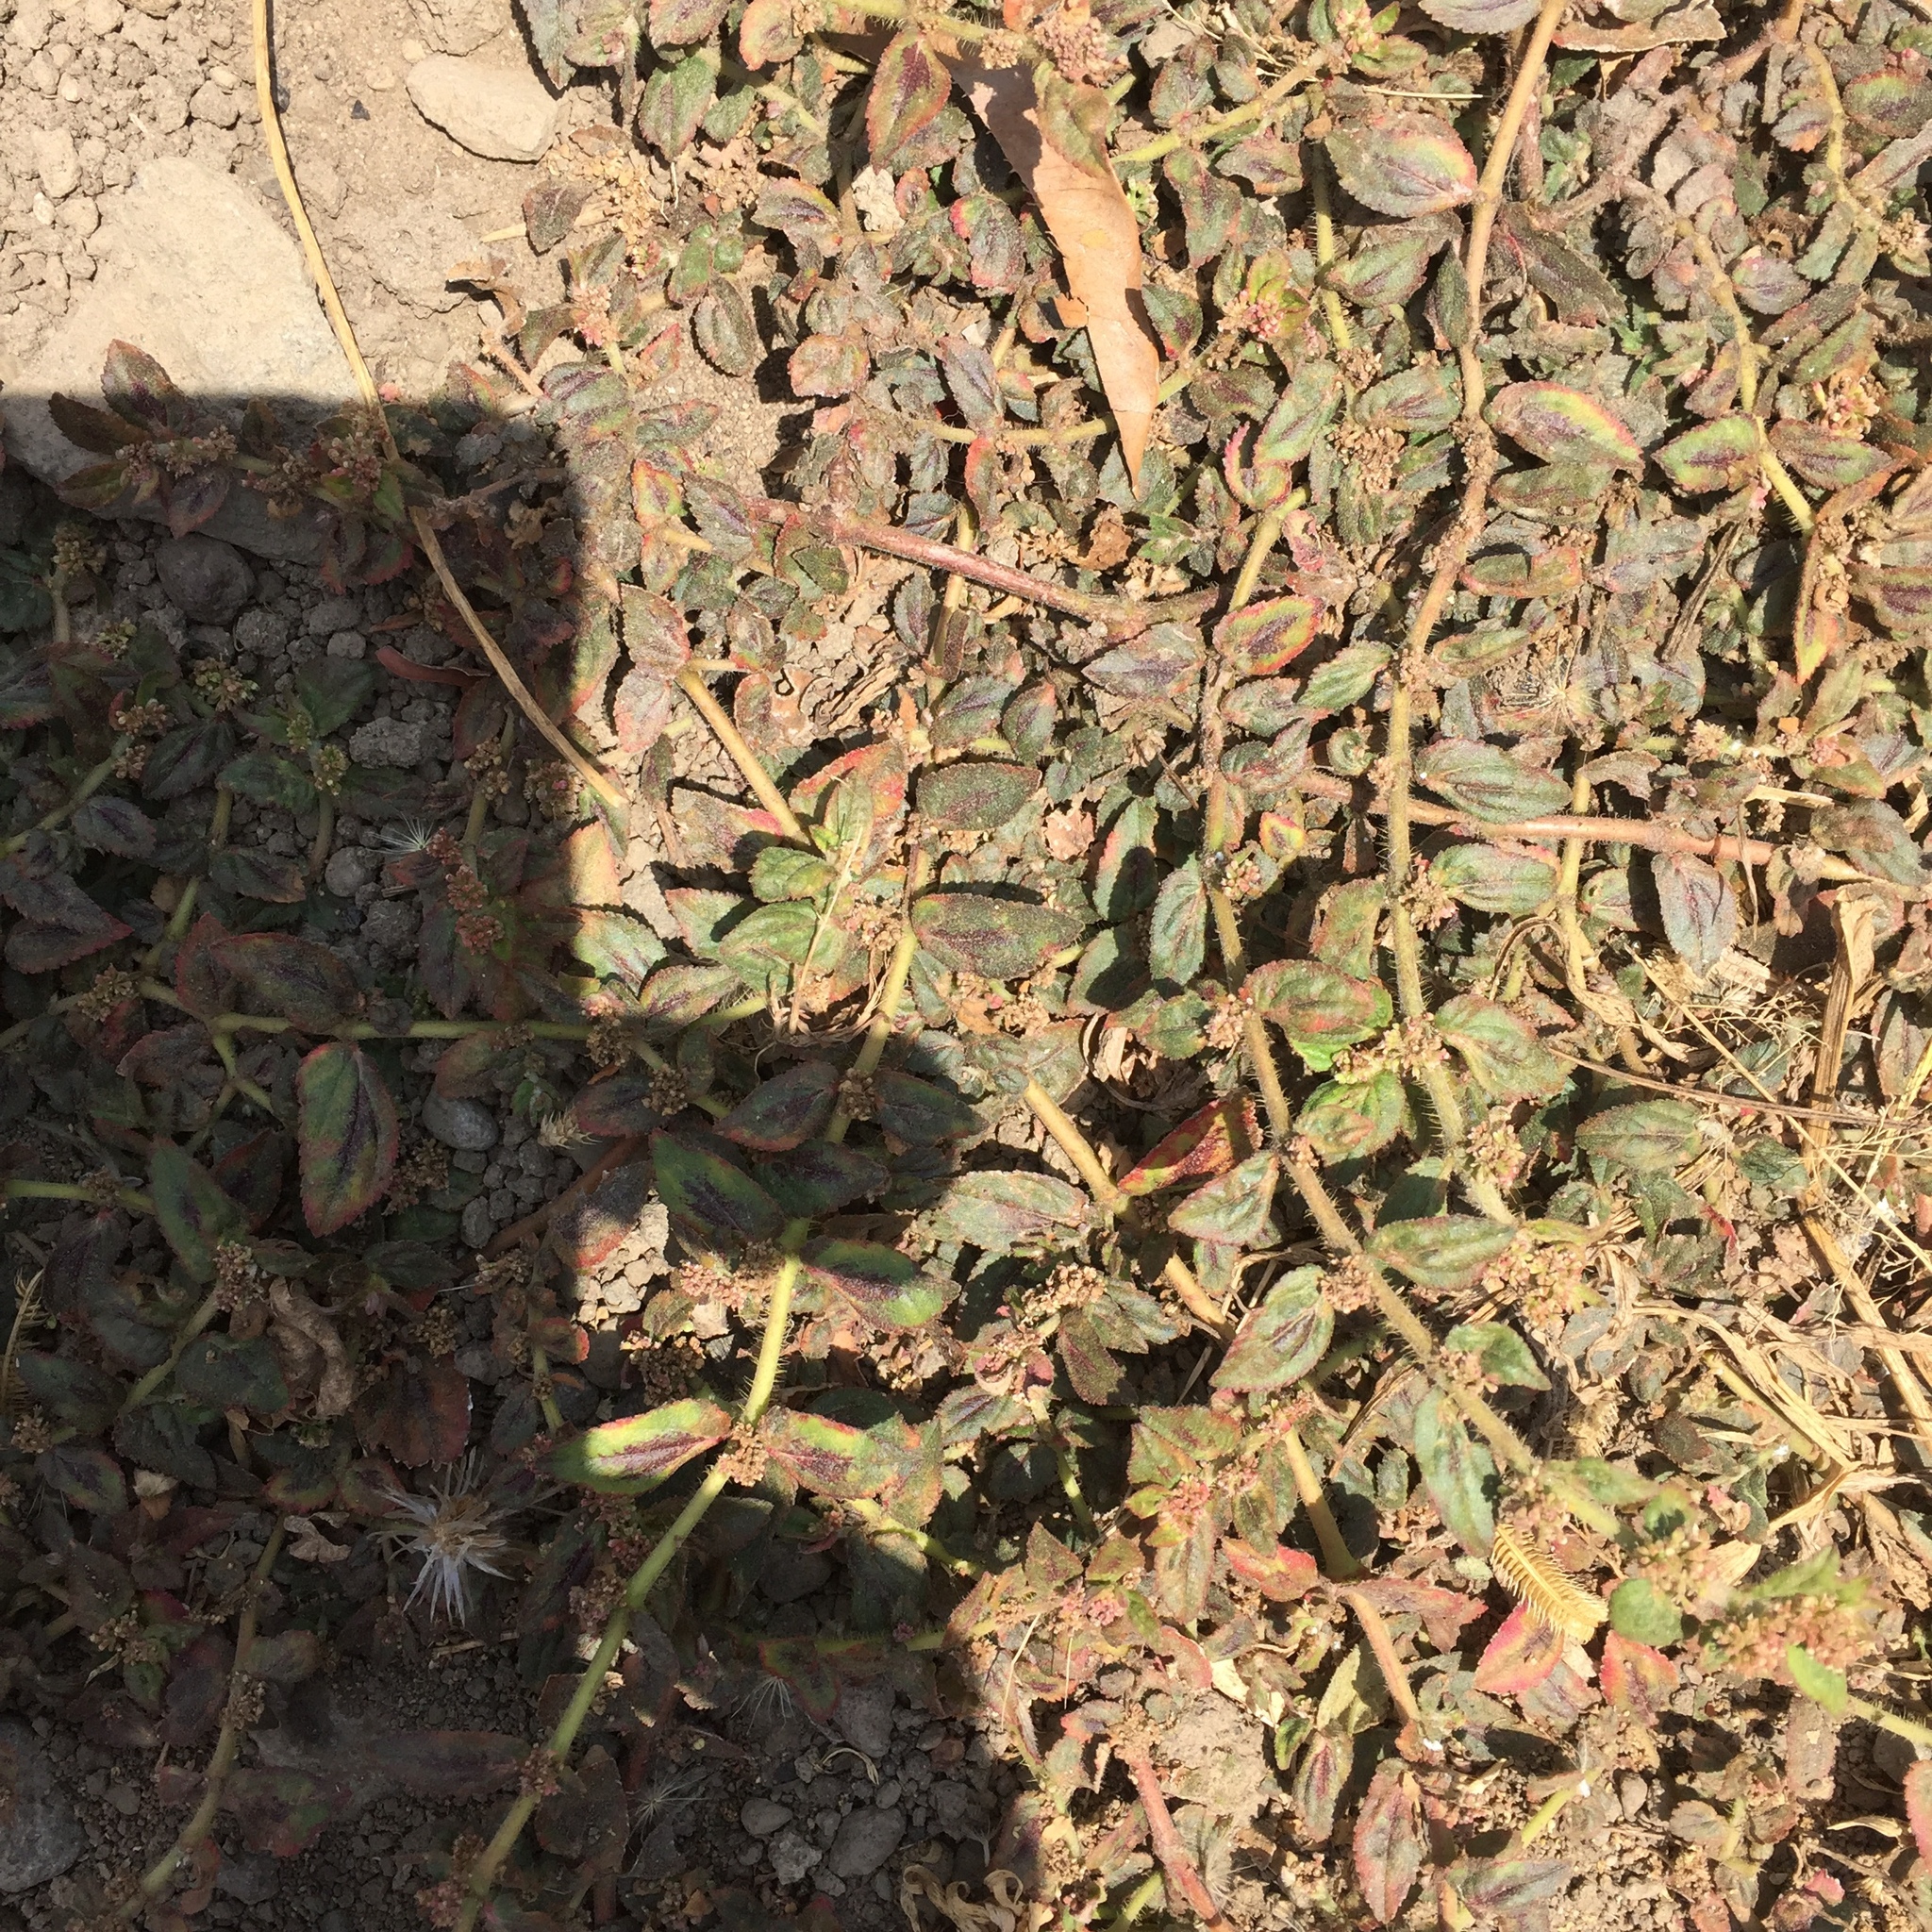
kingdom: Plantae
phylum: Tracheophyta
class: Magnoliopsida
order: Malpighiales
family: Euphorbiaceae
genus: Euphorbia
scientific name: Euphorbia hirta
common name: Pillpod sandmat
